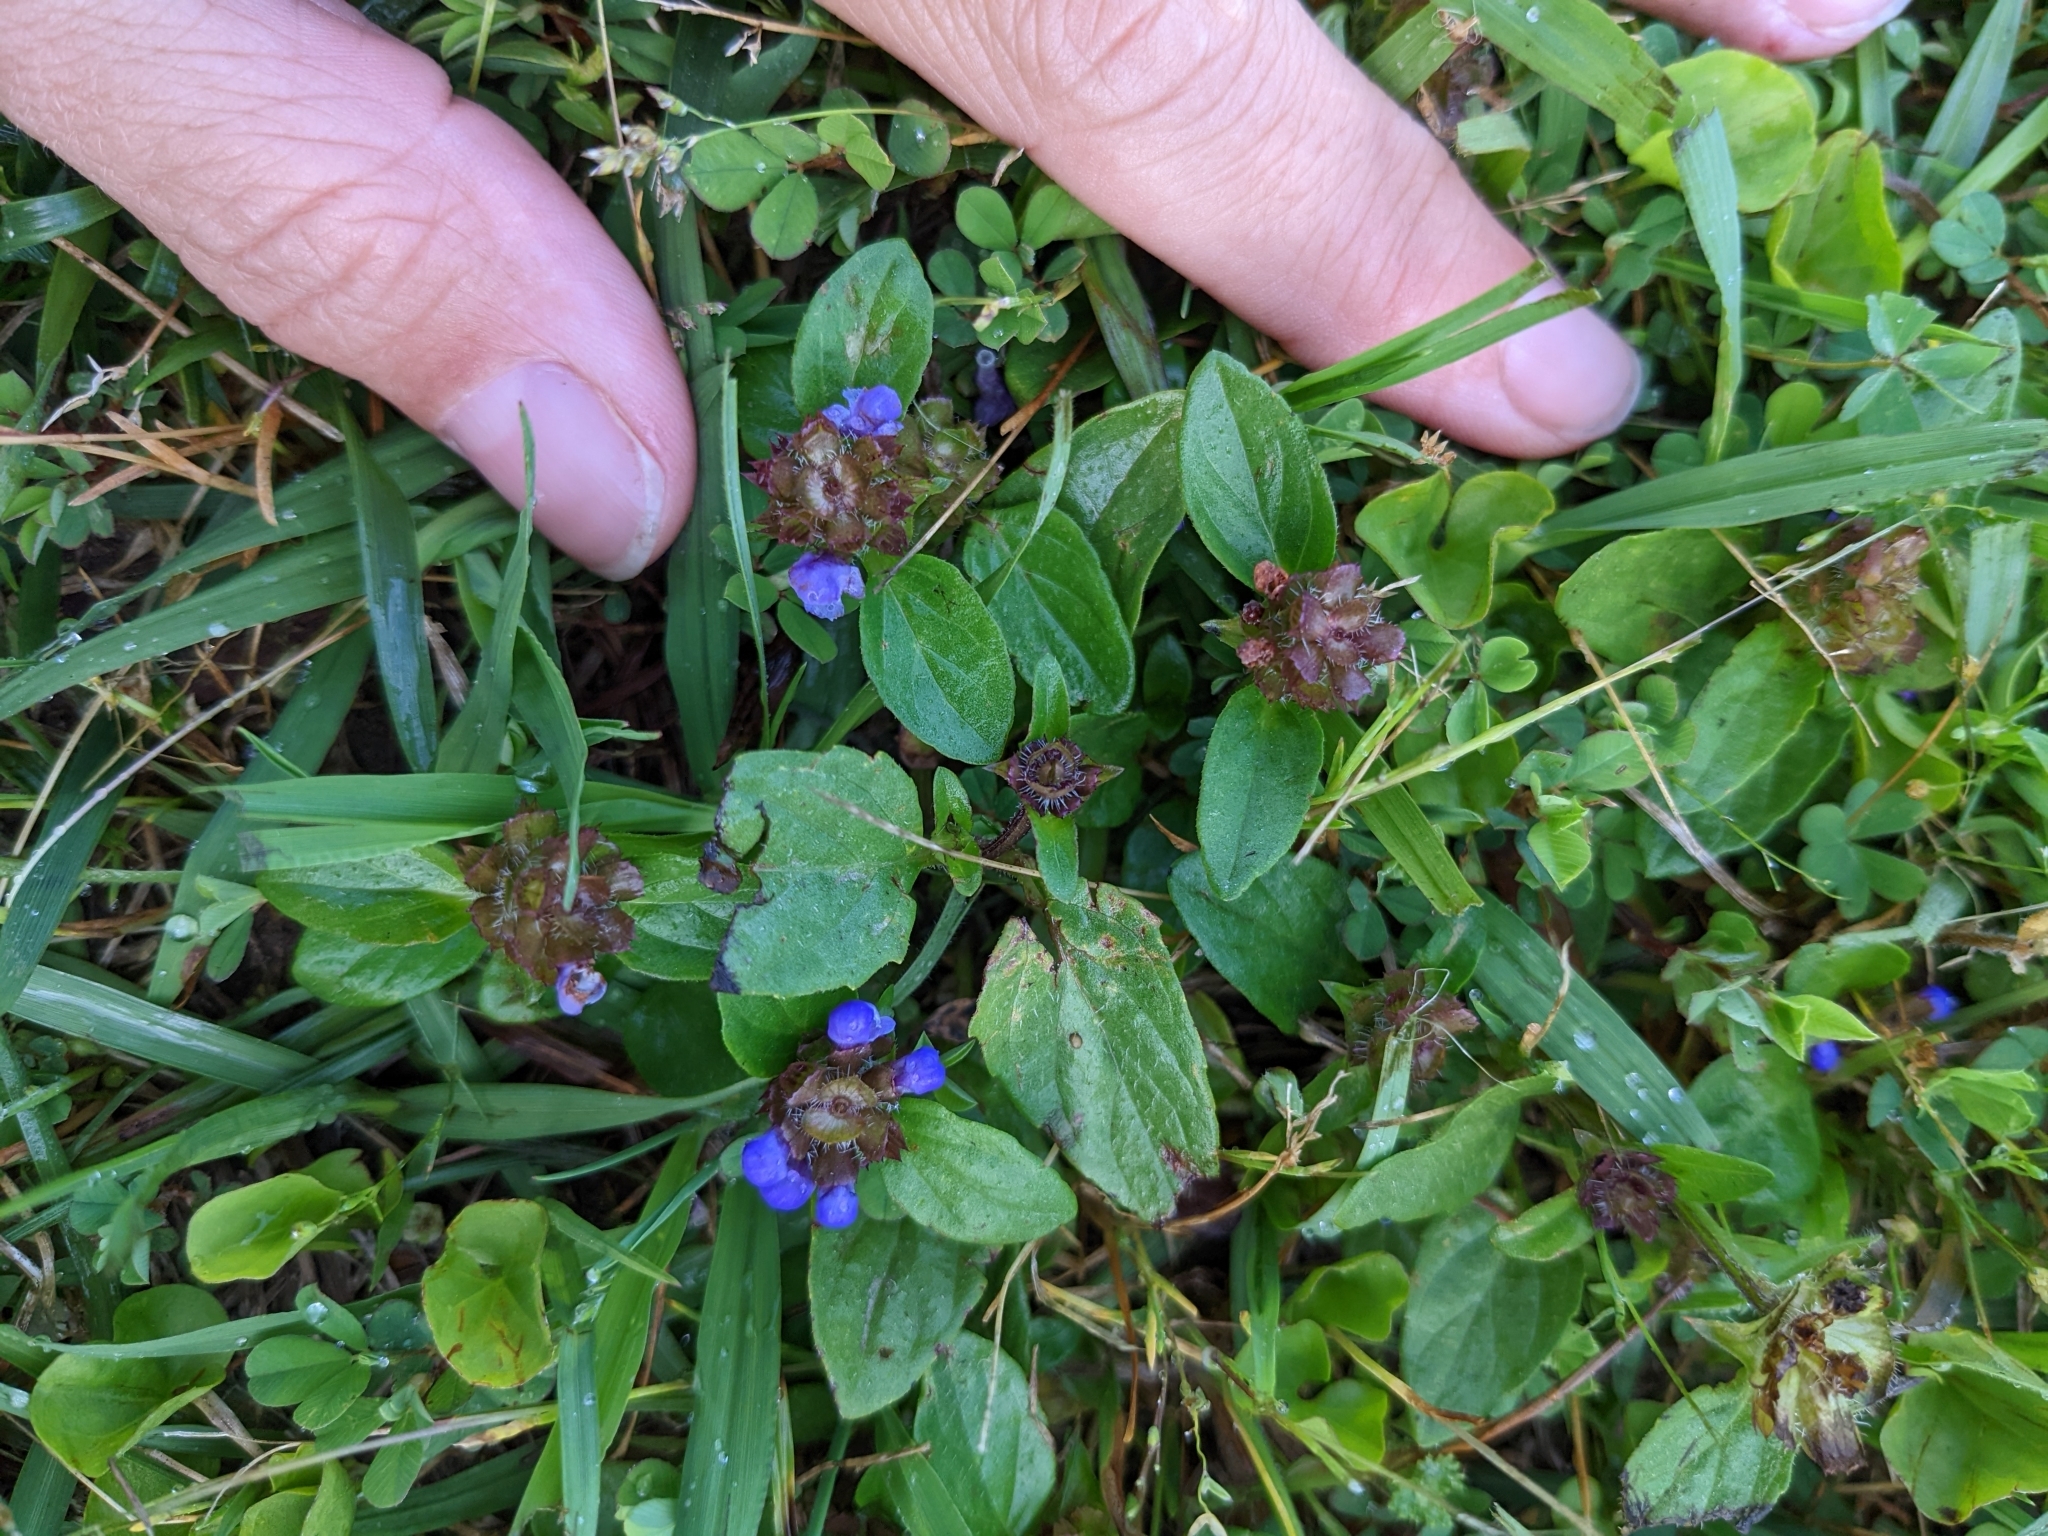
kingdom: Plantae
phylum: Tracheophyta
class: Magnoliopsida
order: Lamiales
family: Lamiaceae
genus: Prunella
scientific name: Prunella vulgaris
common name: Heal-all
